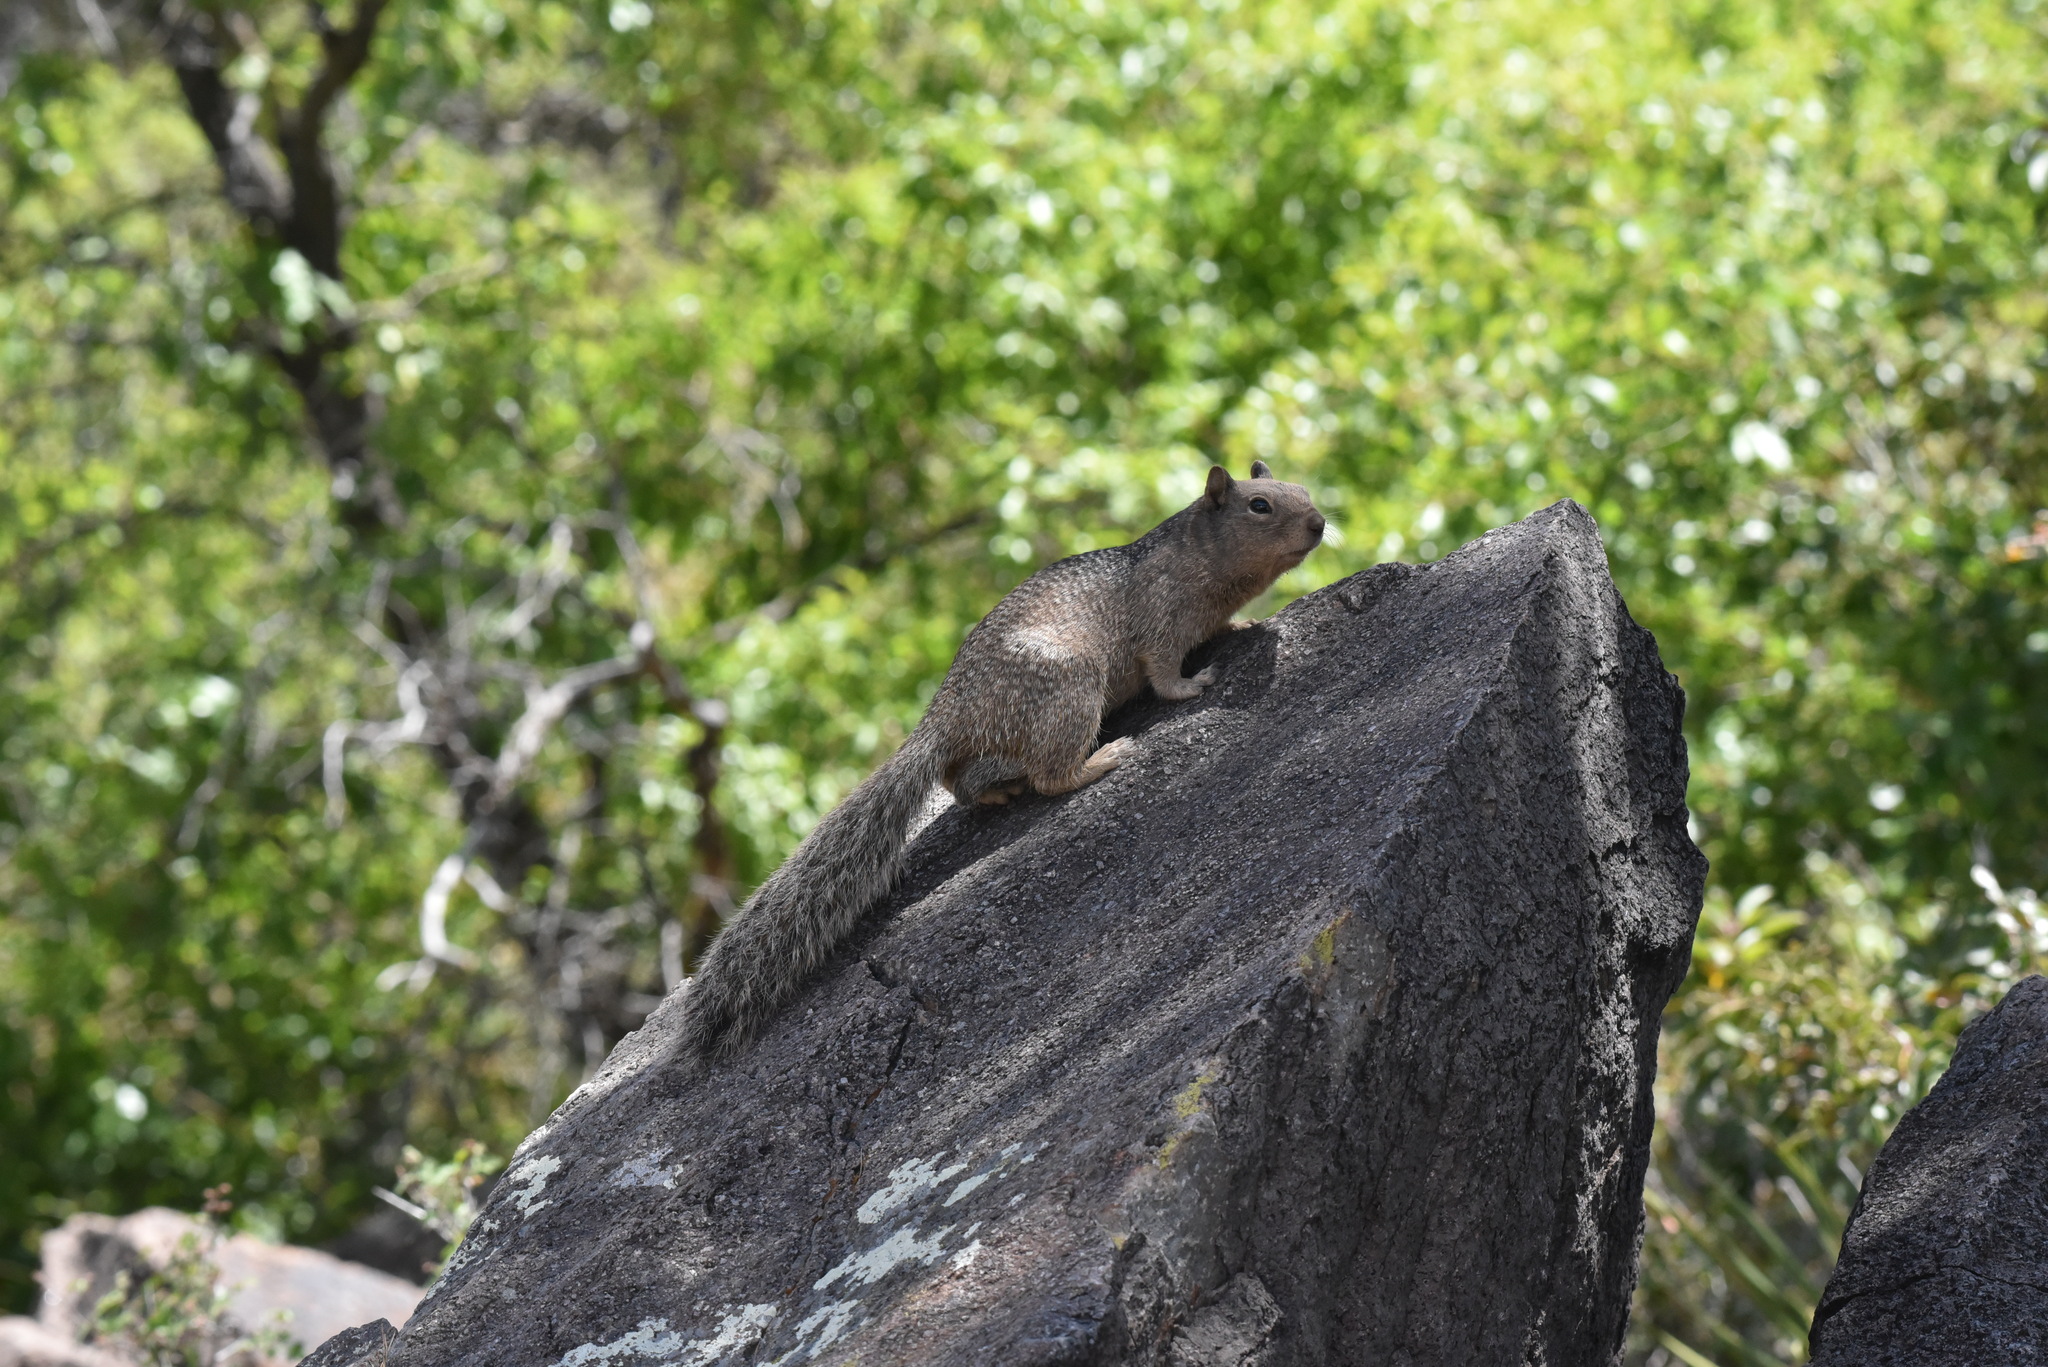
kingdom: Animalia
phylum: Chordata
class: Mammalia
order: Rodentia
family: Sciuridae
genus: Otospermophilus
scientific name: Otospermophilus variegatus
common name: Rock squirrel
